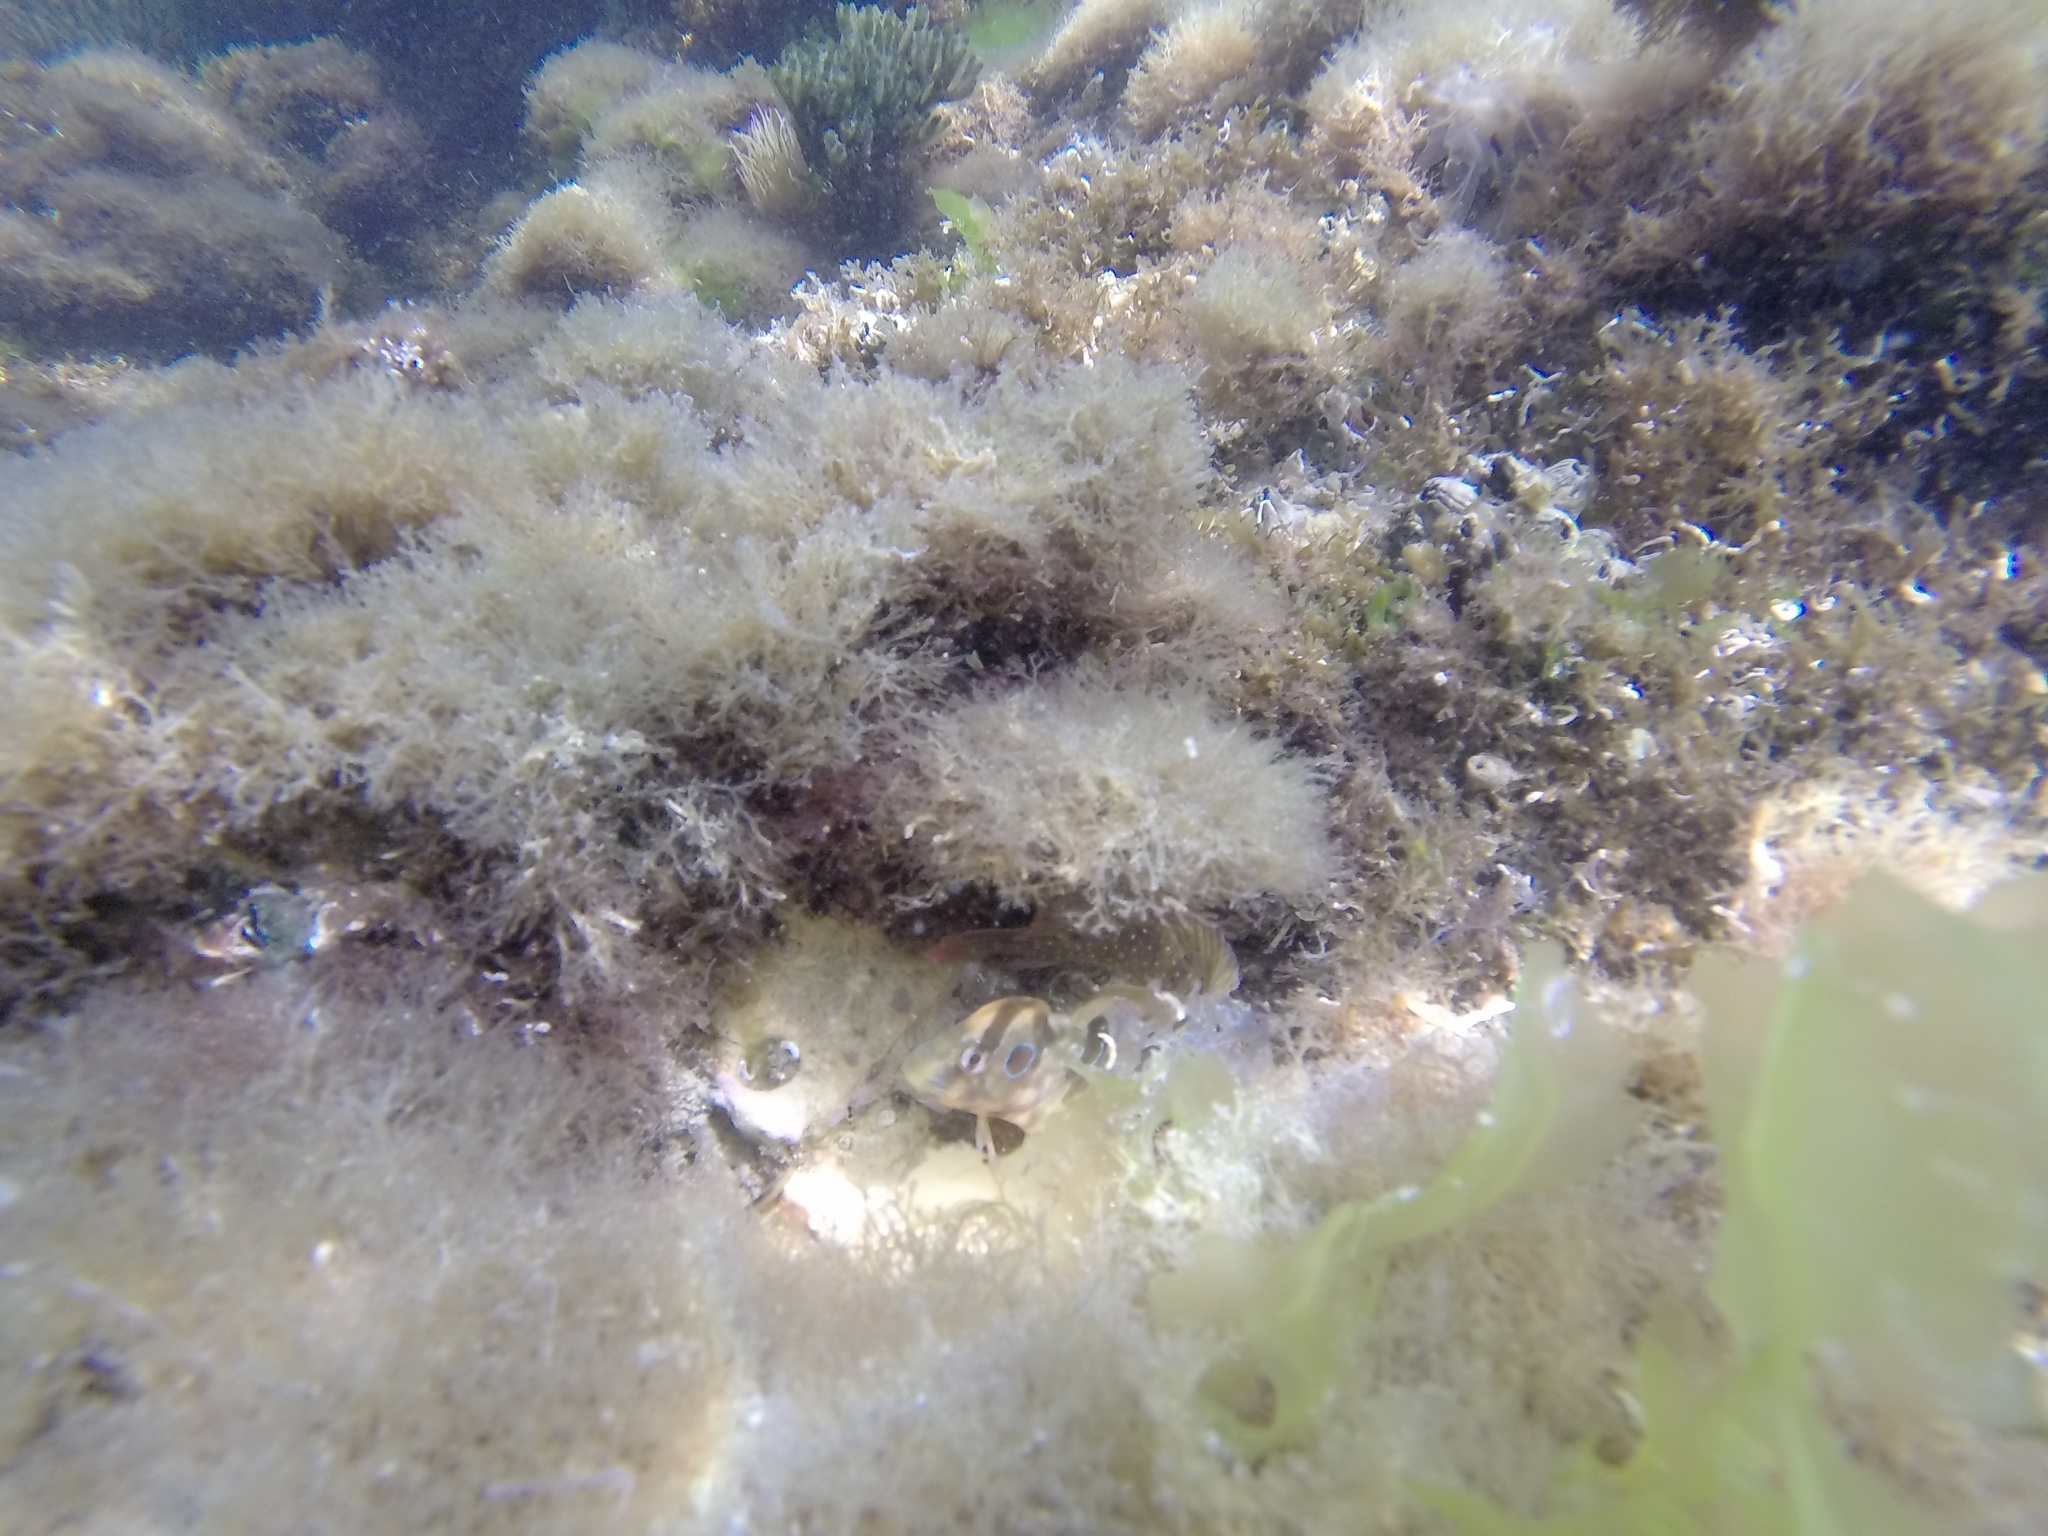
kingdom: Animalia
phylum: Chordata
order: Perciformes
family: Blenniidae
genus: Salaria
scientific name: Salaria pavo
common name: Peacock blenny
